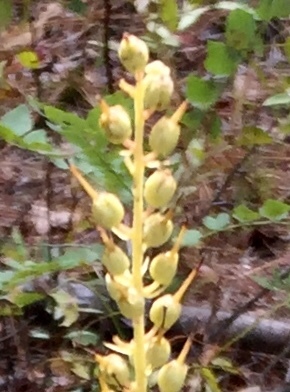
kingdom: Plantae
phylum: Tracheophyta
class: Magnoliopsida
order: Ericales
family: Clethraceae
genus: Clethra
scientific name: Clethra alnifolia
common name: Sweet pepperbush
